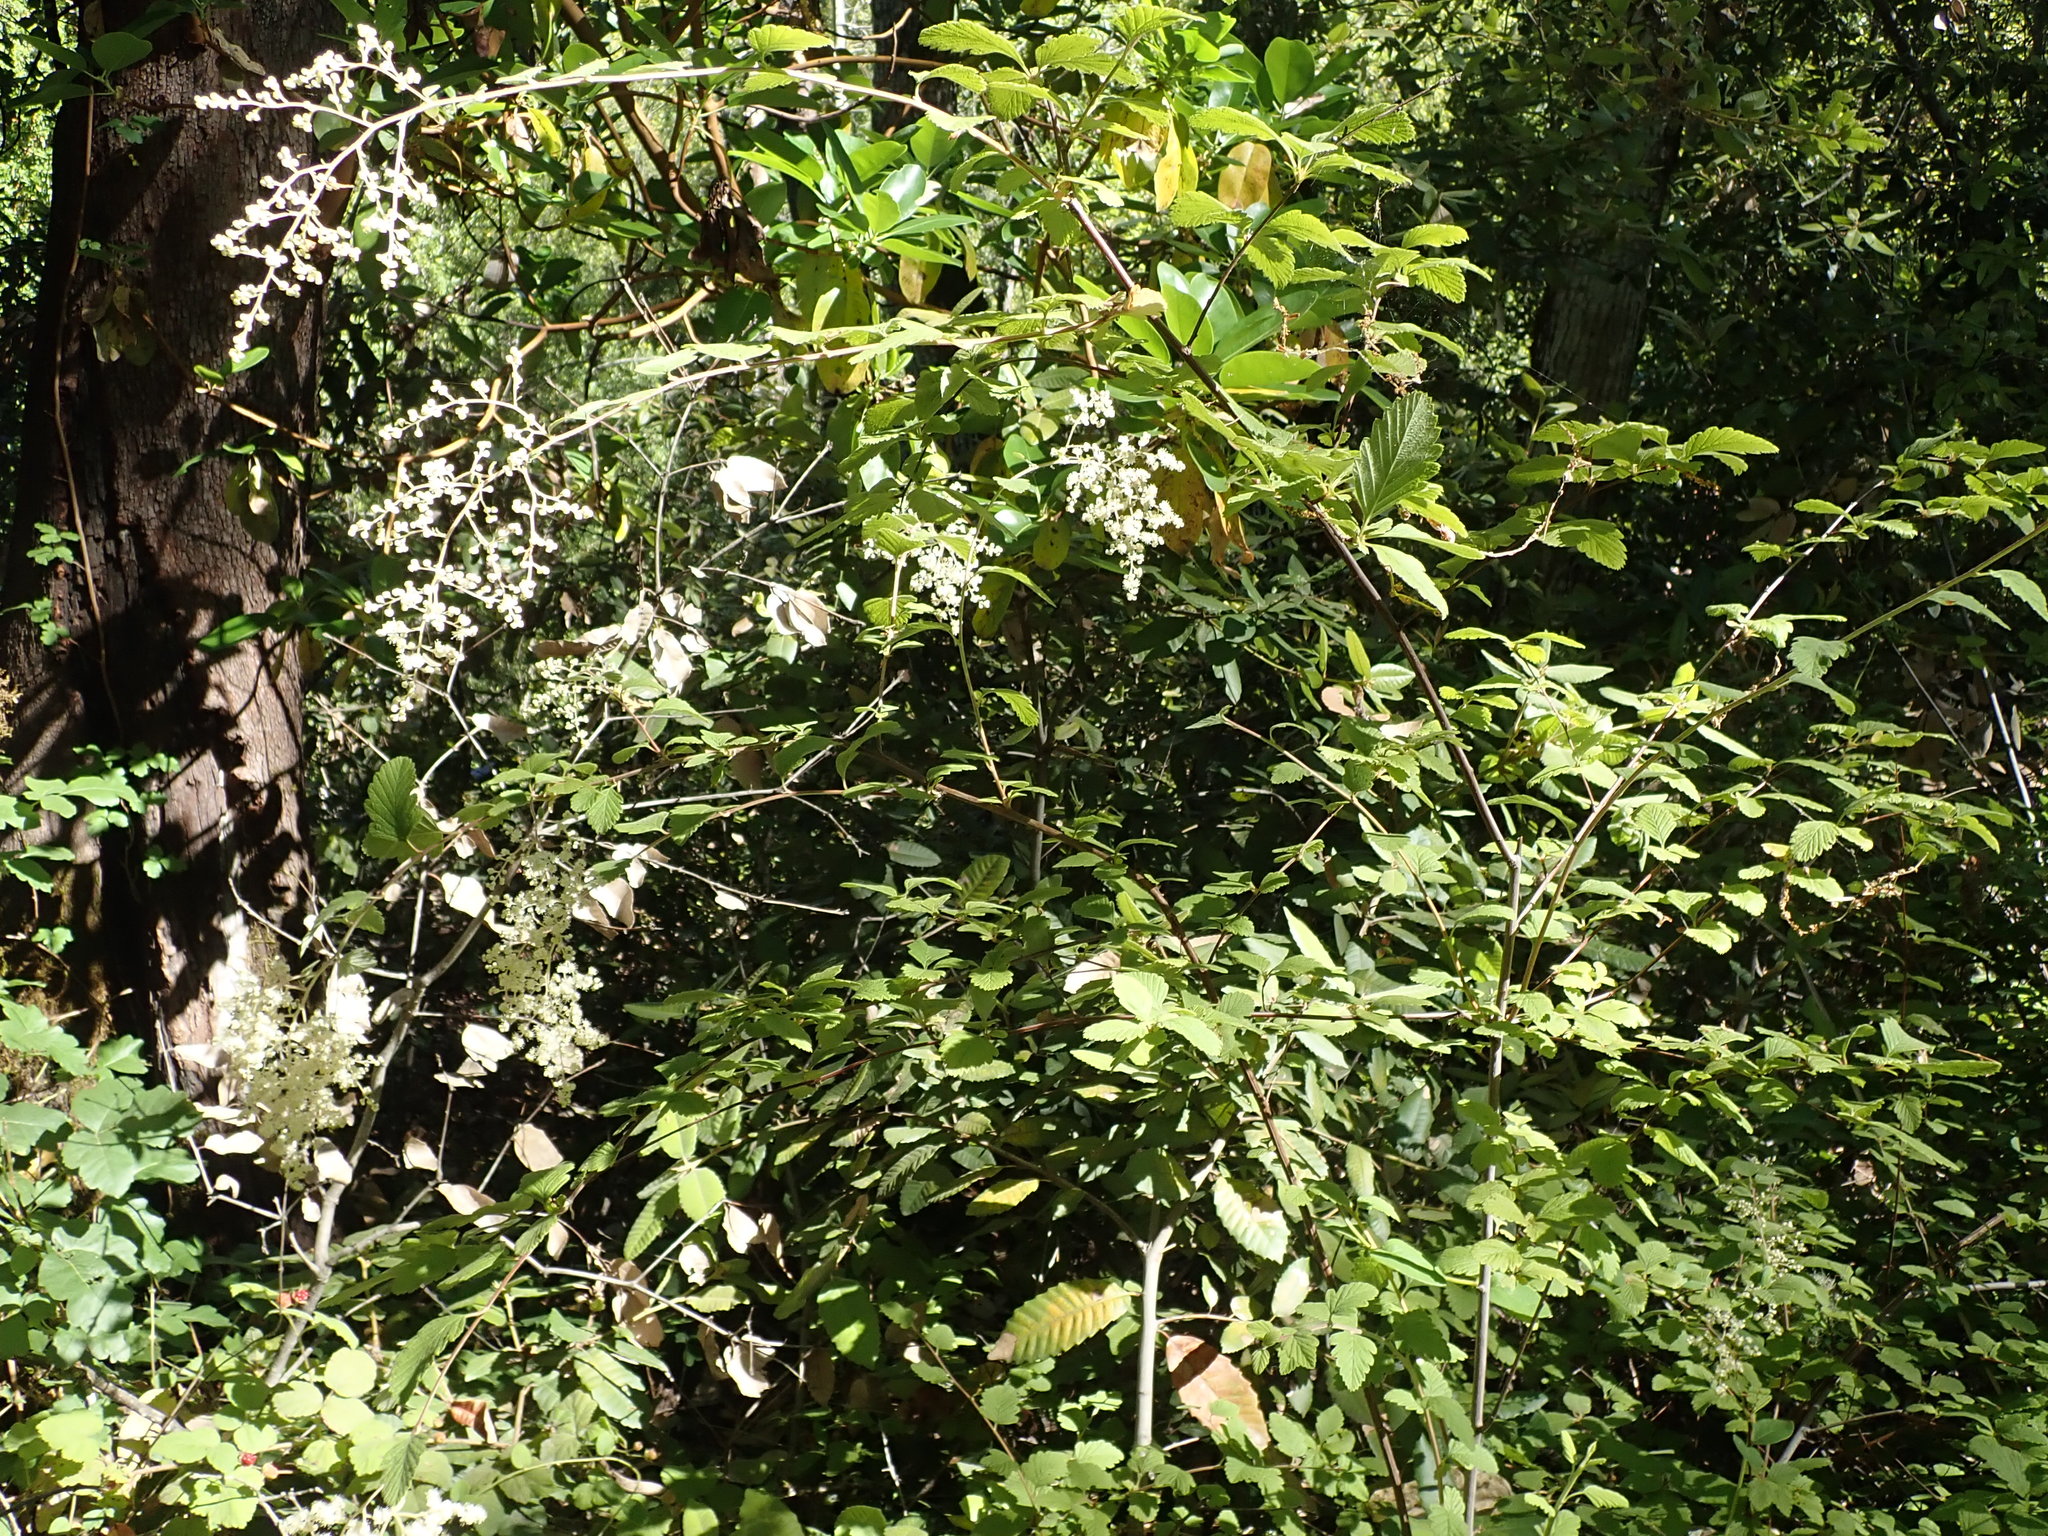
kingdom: Plantae
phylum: Tracheophyta
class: Magnoliopsida
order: Rosales
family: Rosaceae
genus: Holodiscus
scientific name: Holodiscus discolor
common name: Oceanspray
